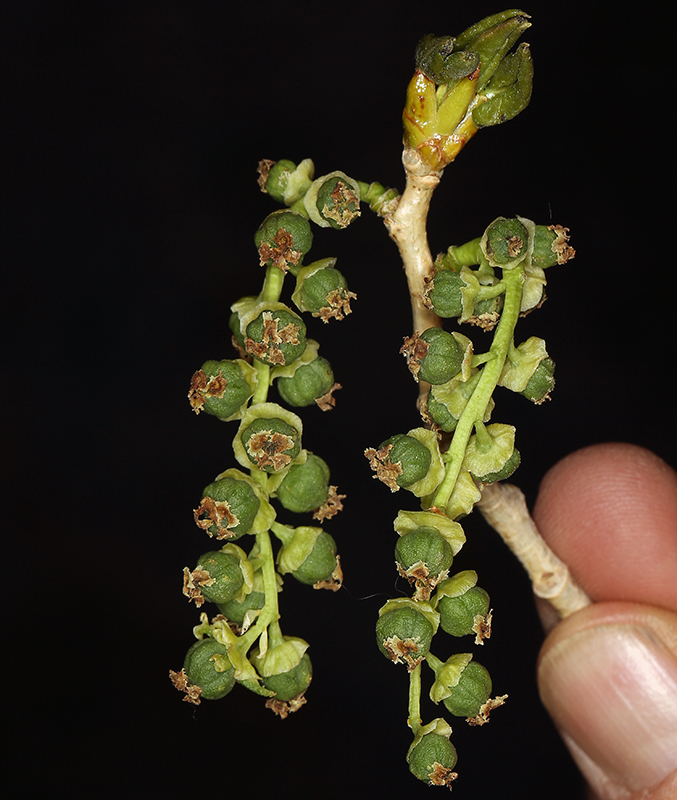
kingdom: Plantae
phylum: Tracheophyta
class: Magnoliopsida
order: Malpighiales
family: Salicaceae
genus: Populus
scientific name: Populus fremontii
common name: Fremont's cottonwood
